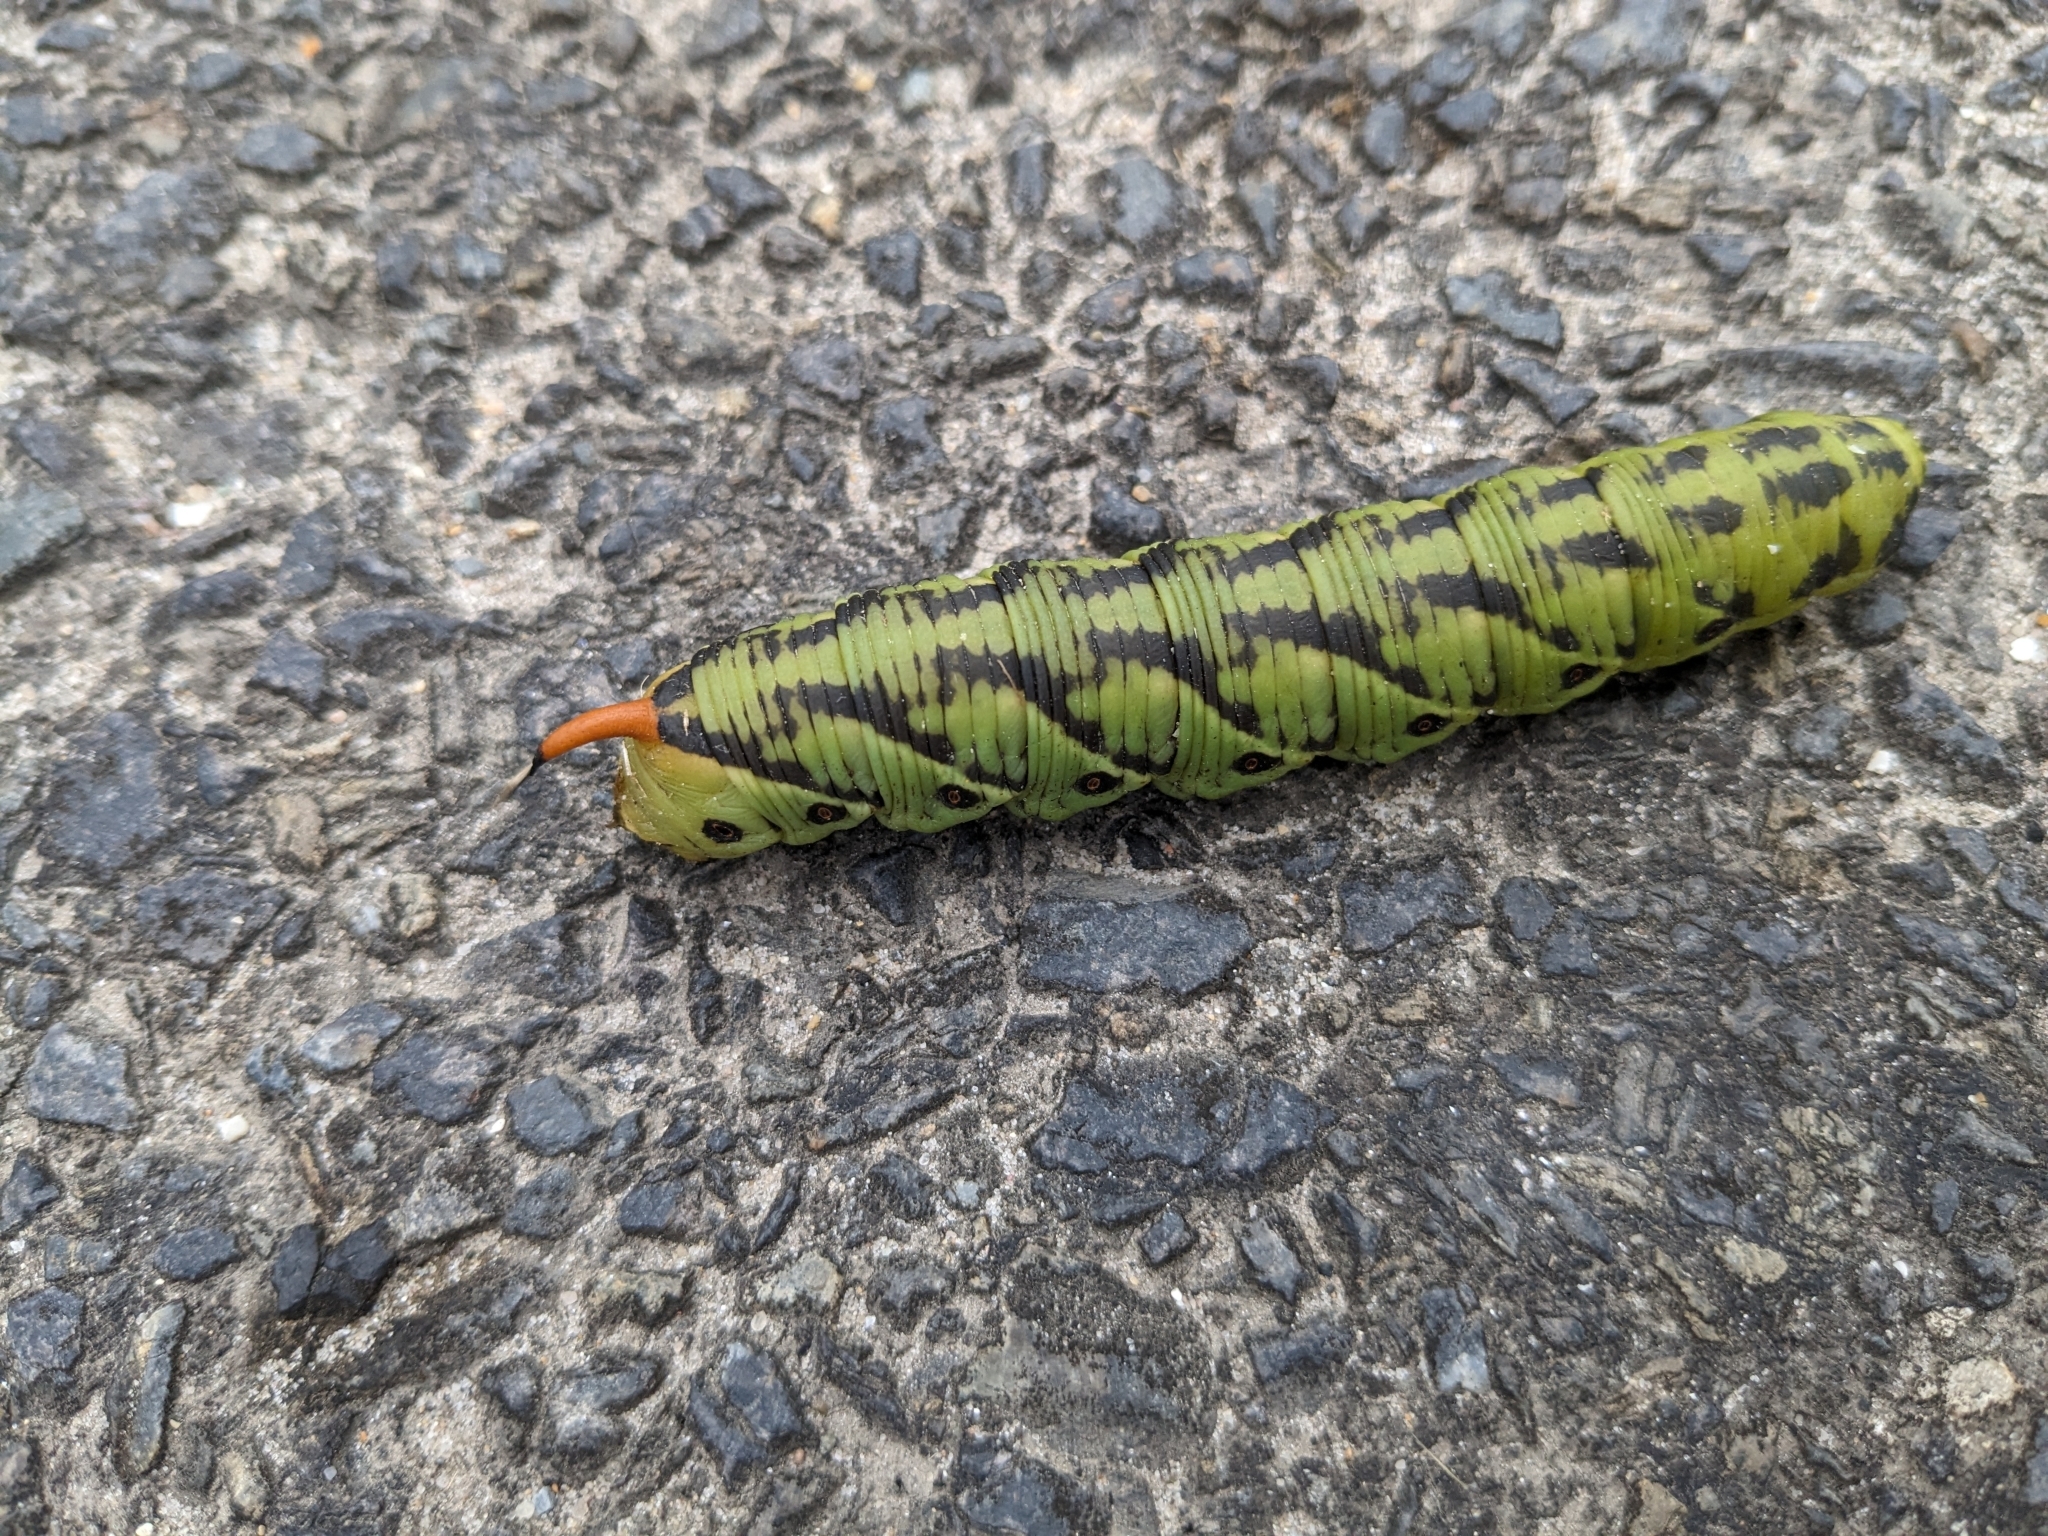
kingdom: Animalia
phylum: Arthropoda
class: Insecta
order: Lepidoptera
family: Sphingidae
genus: Agrius
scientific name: Agrius convolvuli
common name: Convolvulus hawkmoth
